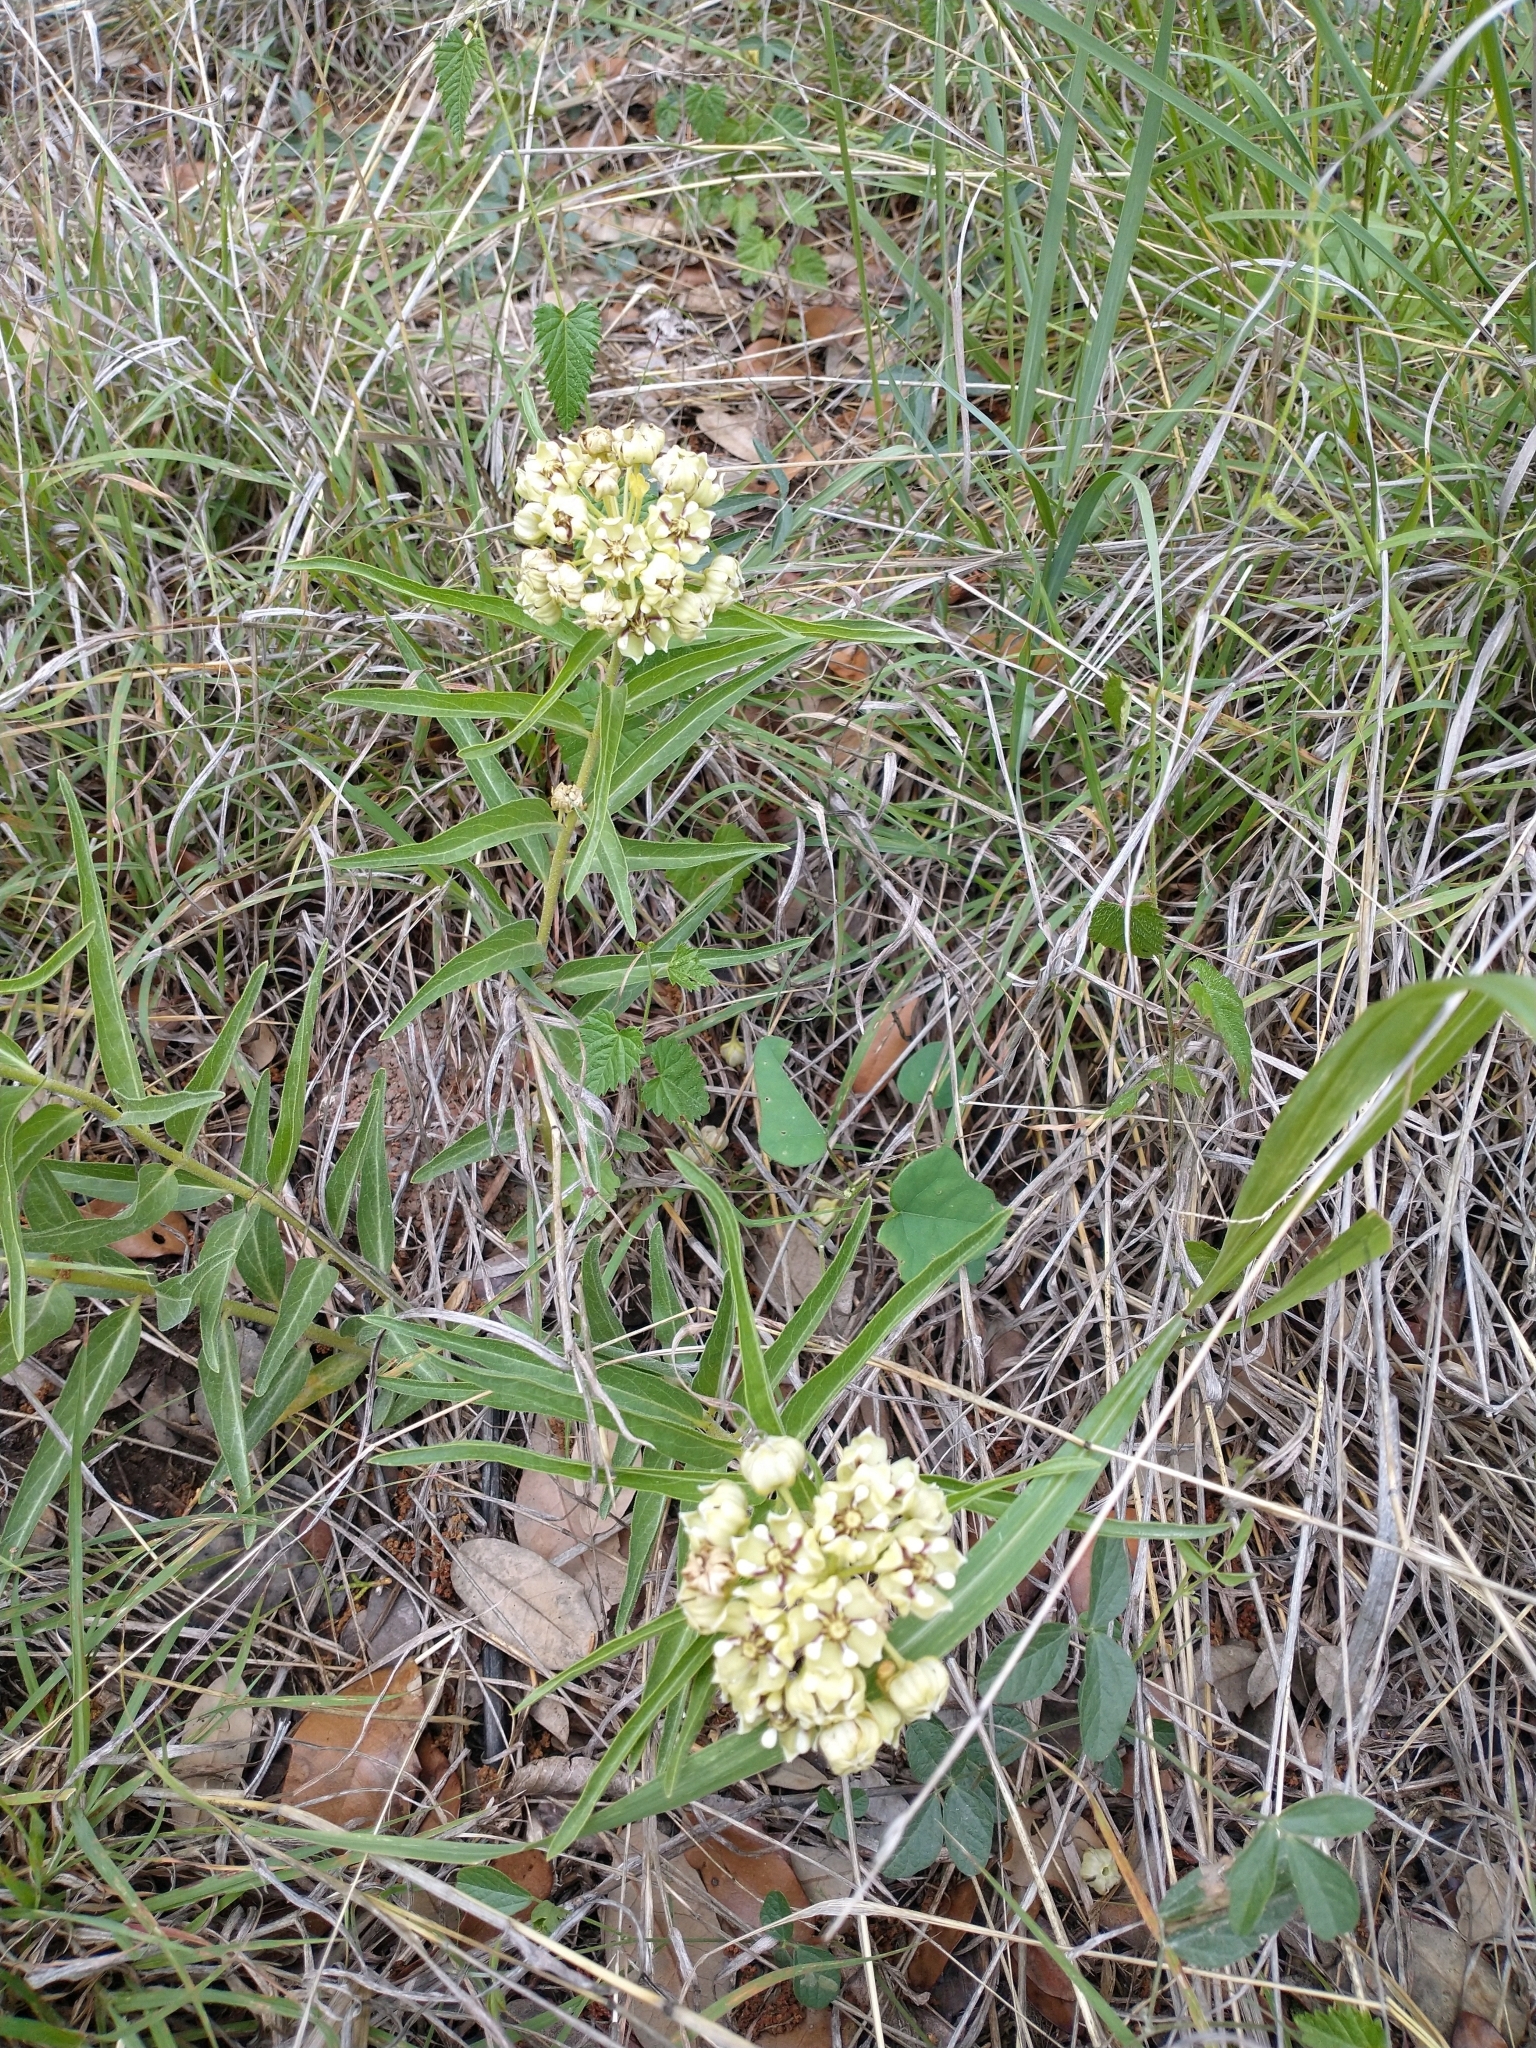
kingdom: Plantae
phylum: Tracheophyta
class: Magnoliopsida
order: Gentianales
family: Apocynaceae
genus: Asclepias
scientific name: Asclepias asperula
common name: Antelope horns
